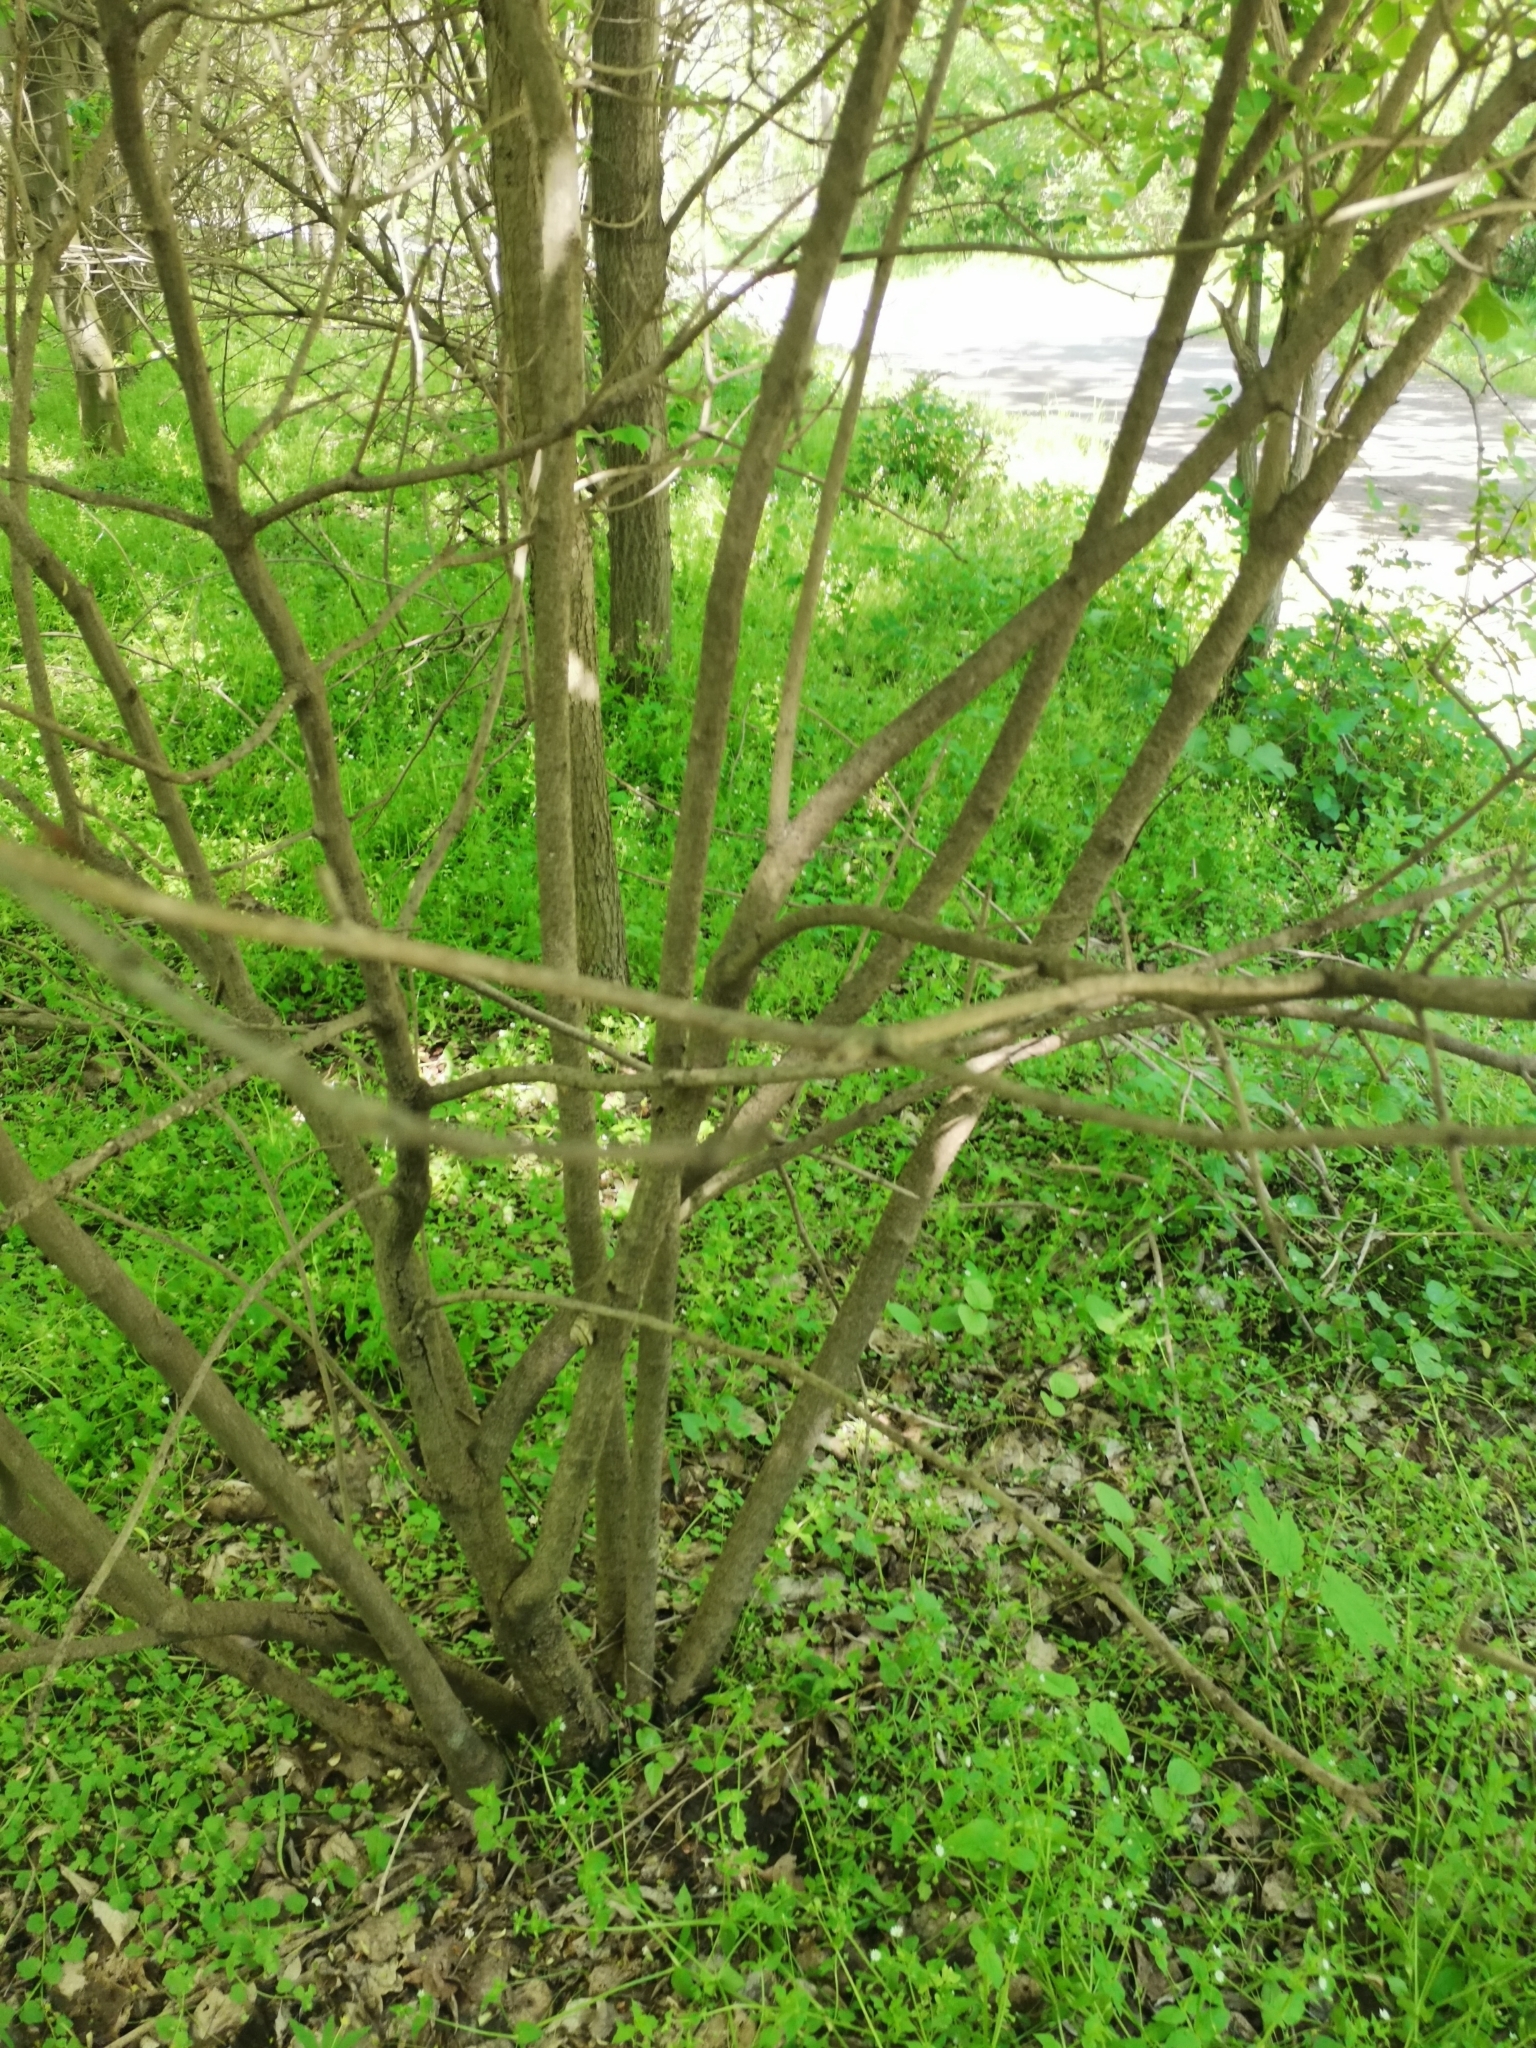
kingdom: Plantae
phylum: Tracheophyta
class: Magnoliopsida
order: Dipsacales
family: Viburnaceae
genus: Viburnum
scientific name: Viburnum lantana
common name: Wayfaring tree
